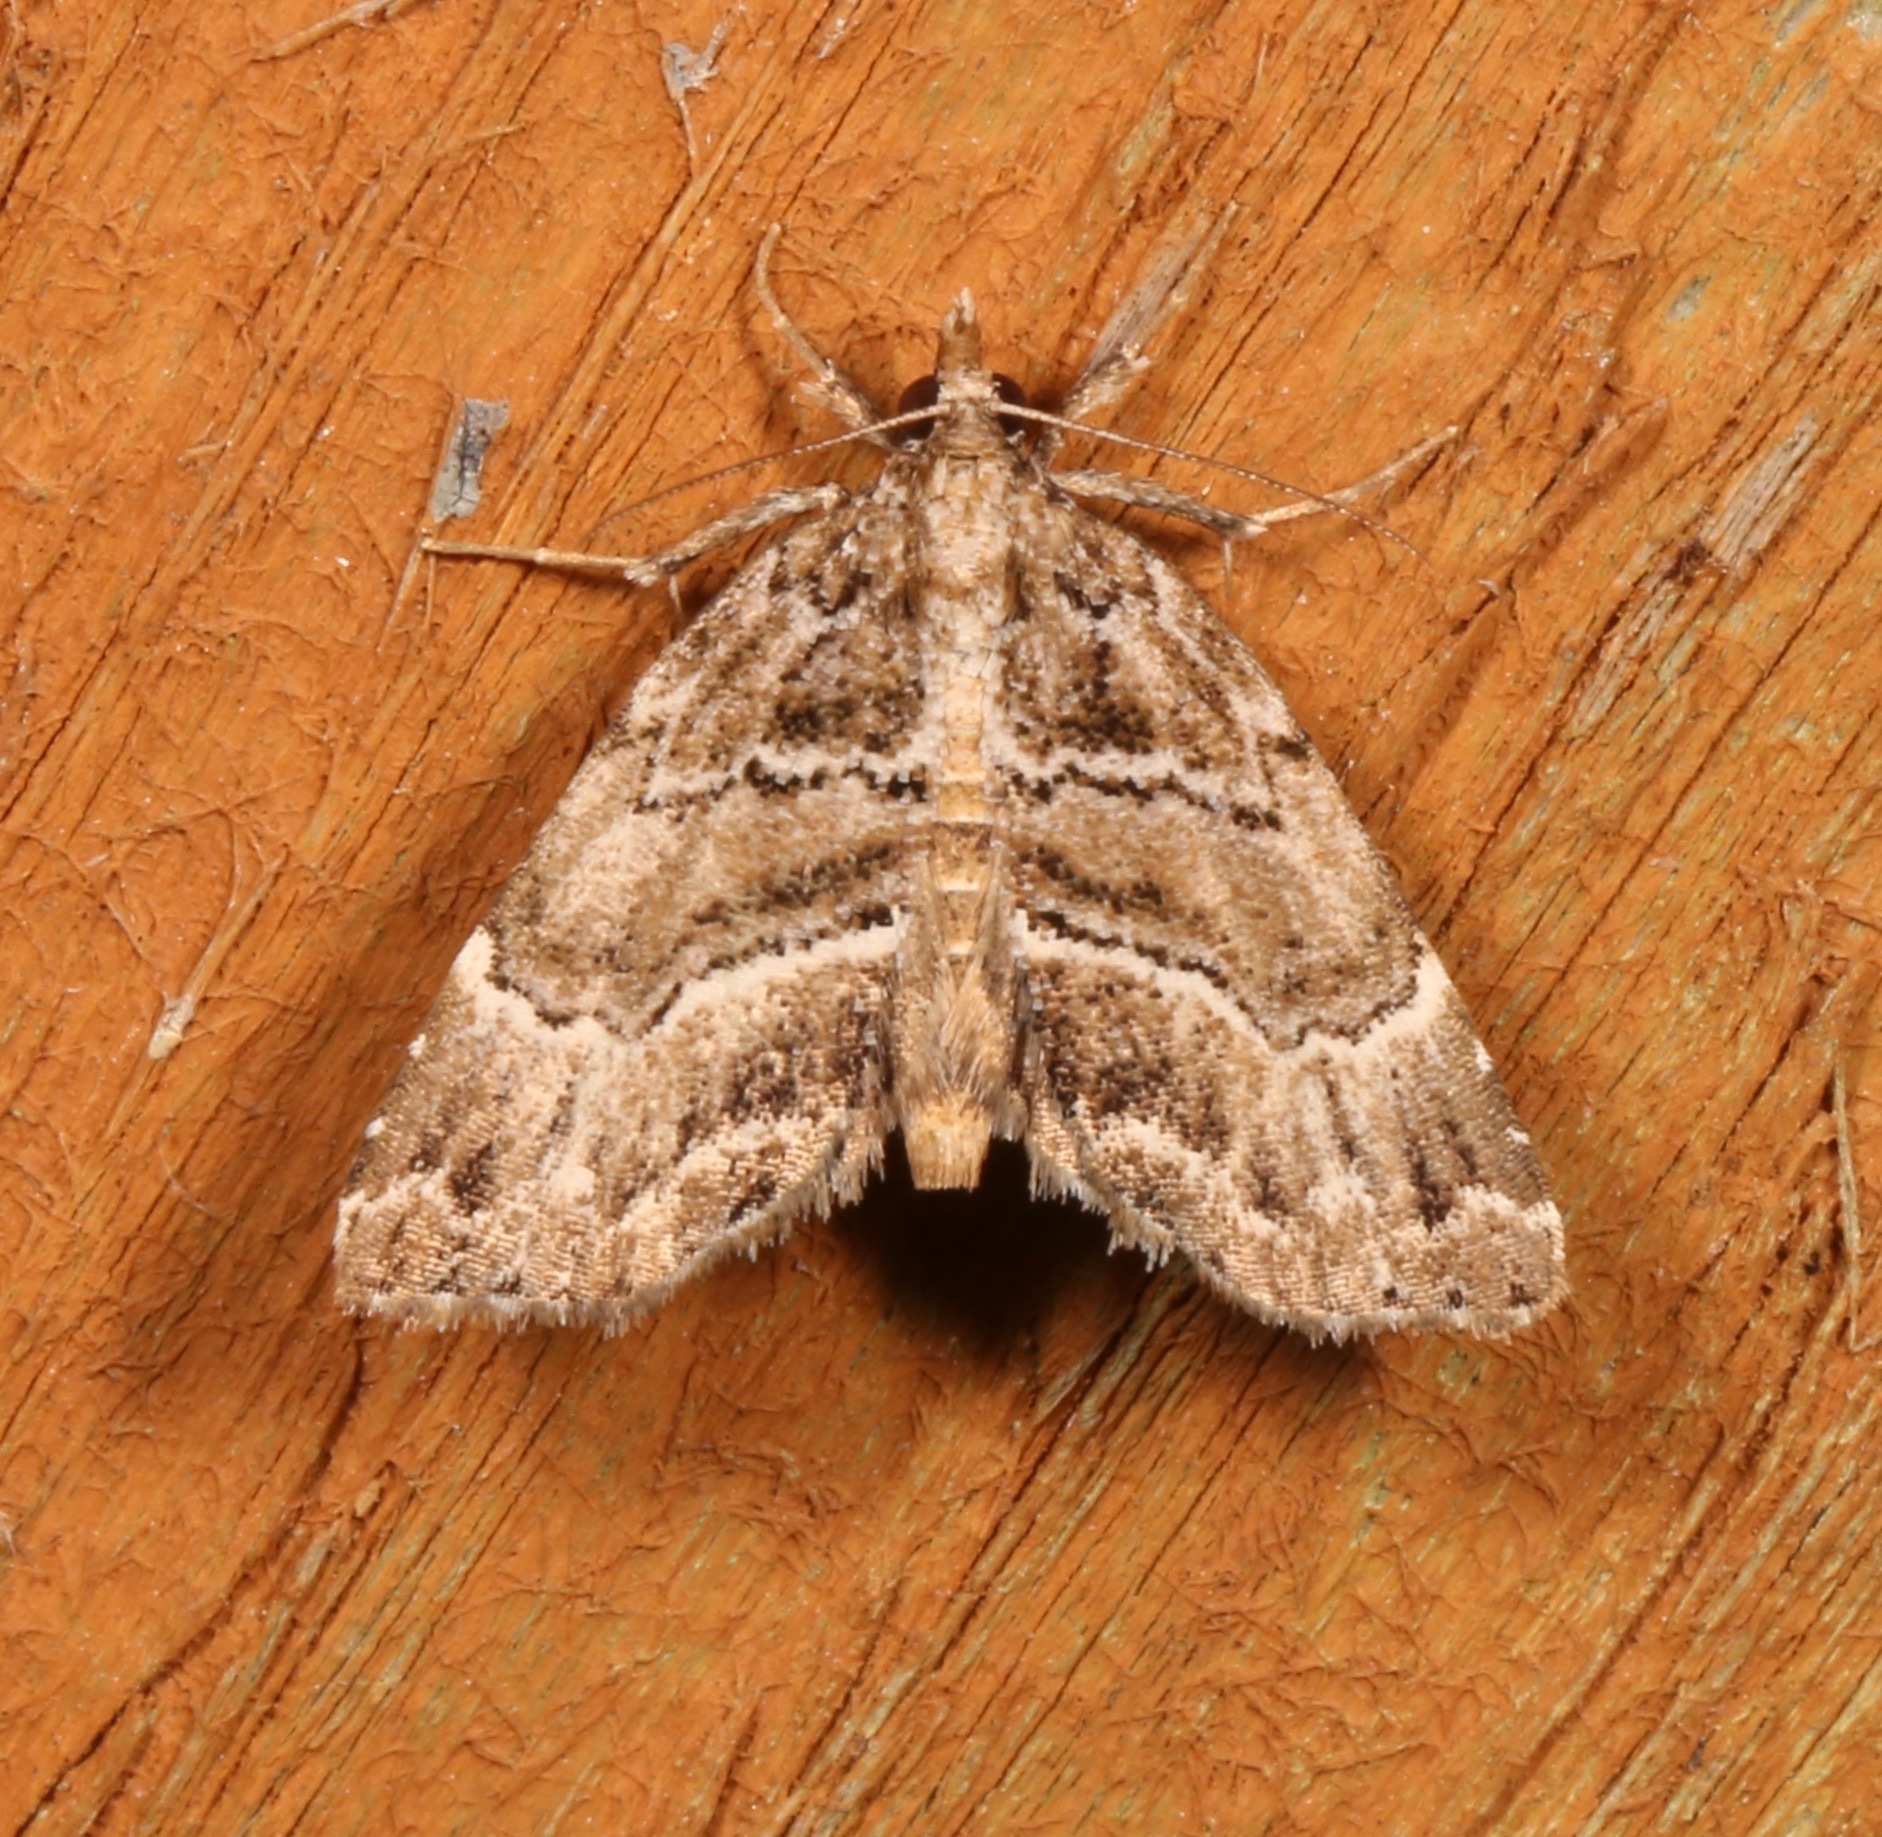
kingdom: Animalia
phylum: Arthropoda
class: Insecta
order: Lepidoptera
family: Erebidae
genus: Cutina
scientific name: Cutina arcuata
